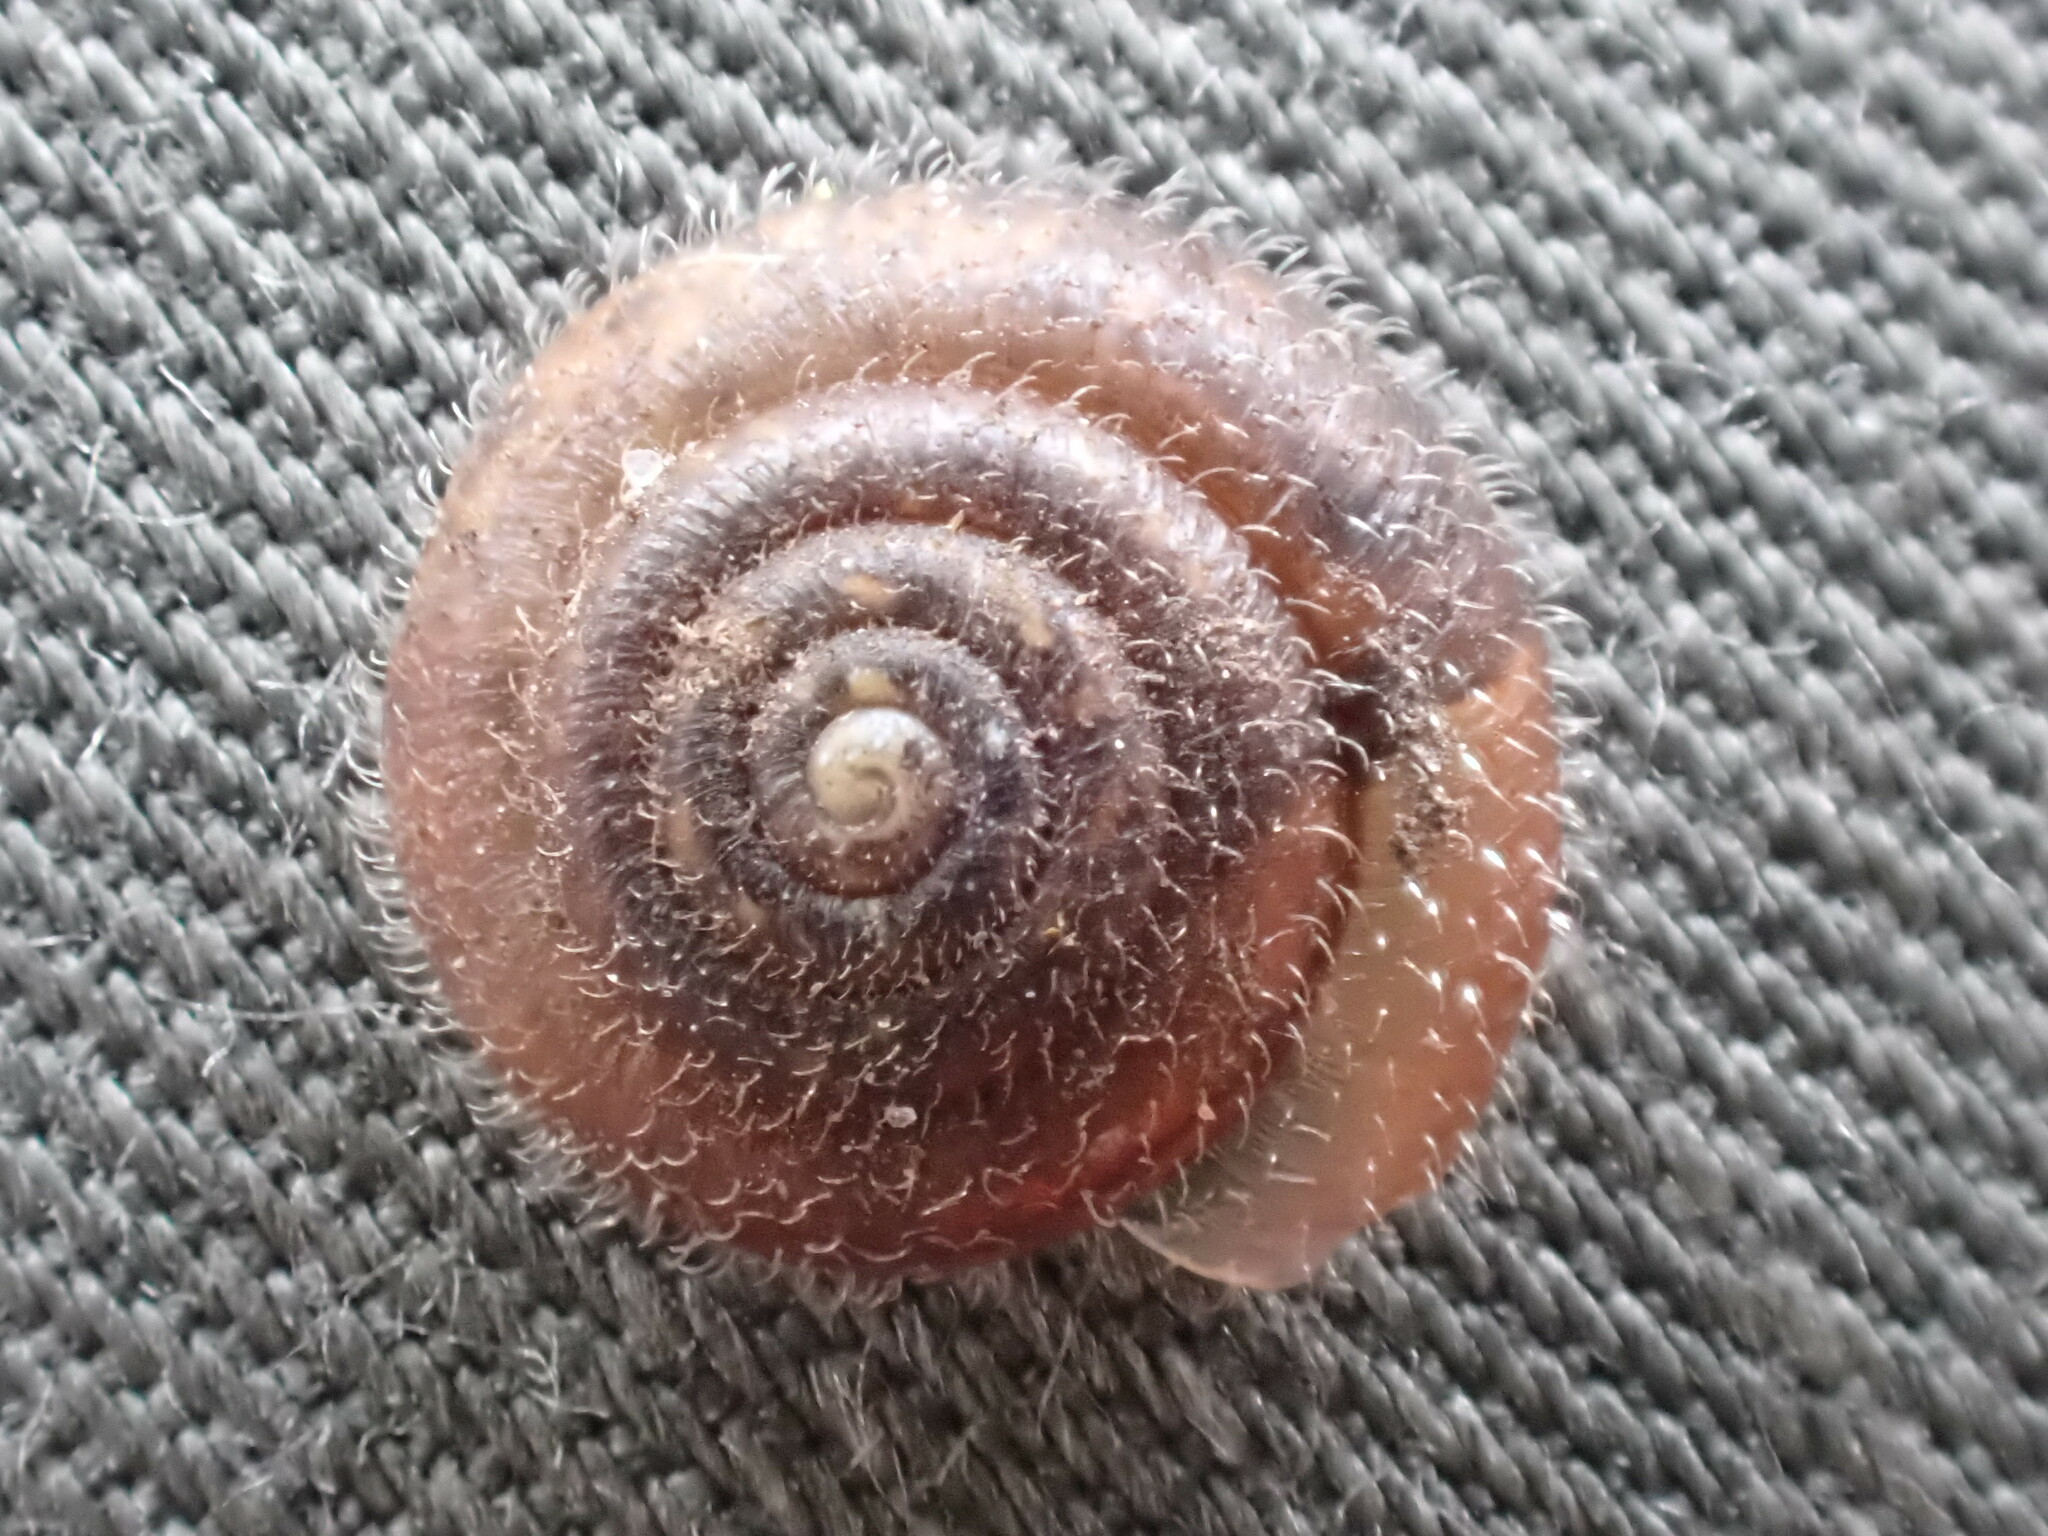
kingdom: Animalia
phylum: Mollusca
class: Gastropoda
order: Stylommatophora
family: Hygromiidae
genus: Trochulus
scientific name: Trochulus hispidus
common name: Hairy snail
